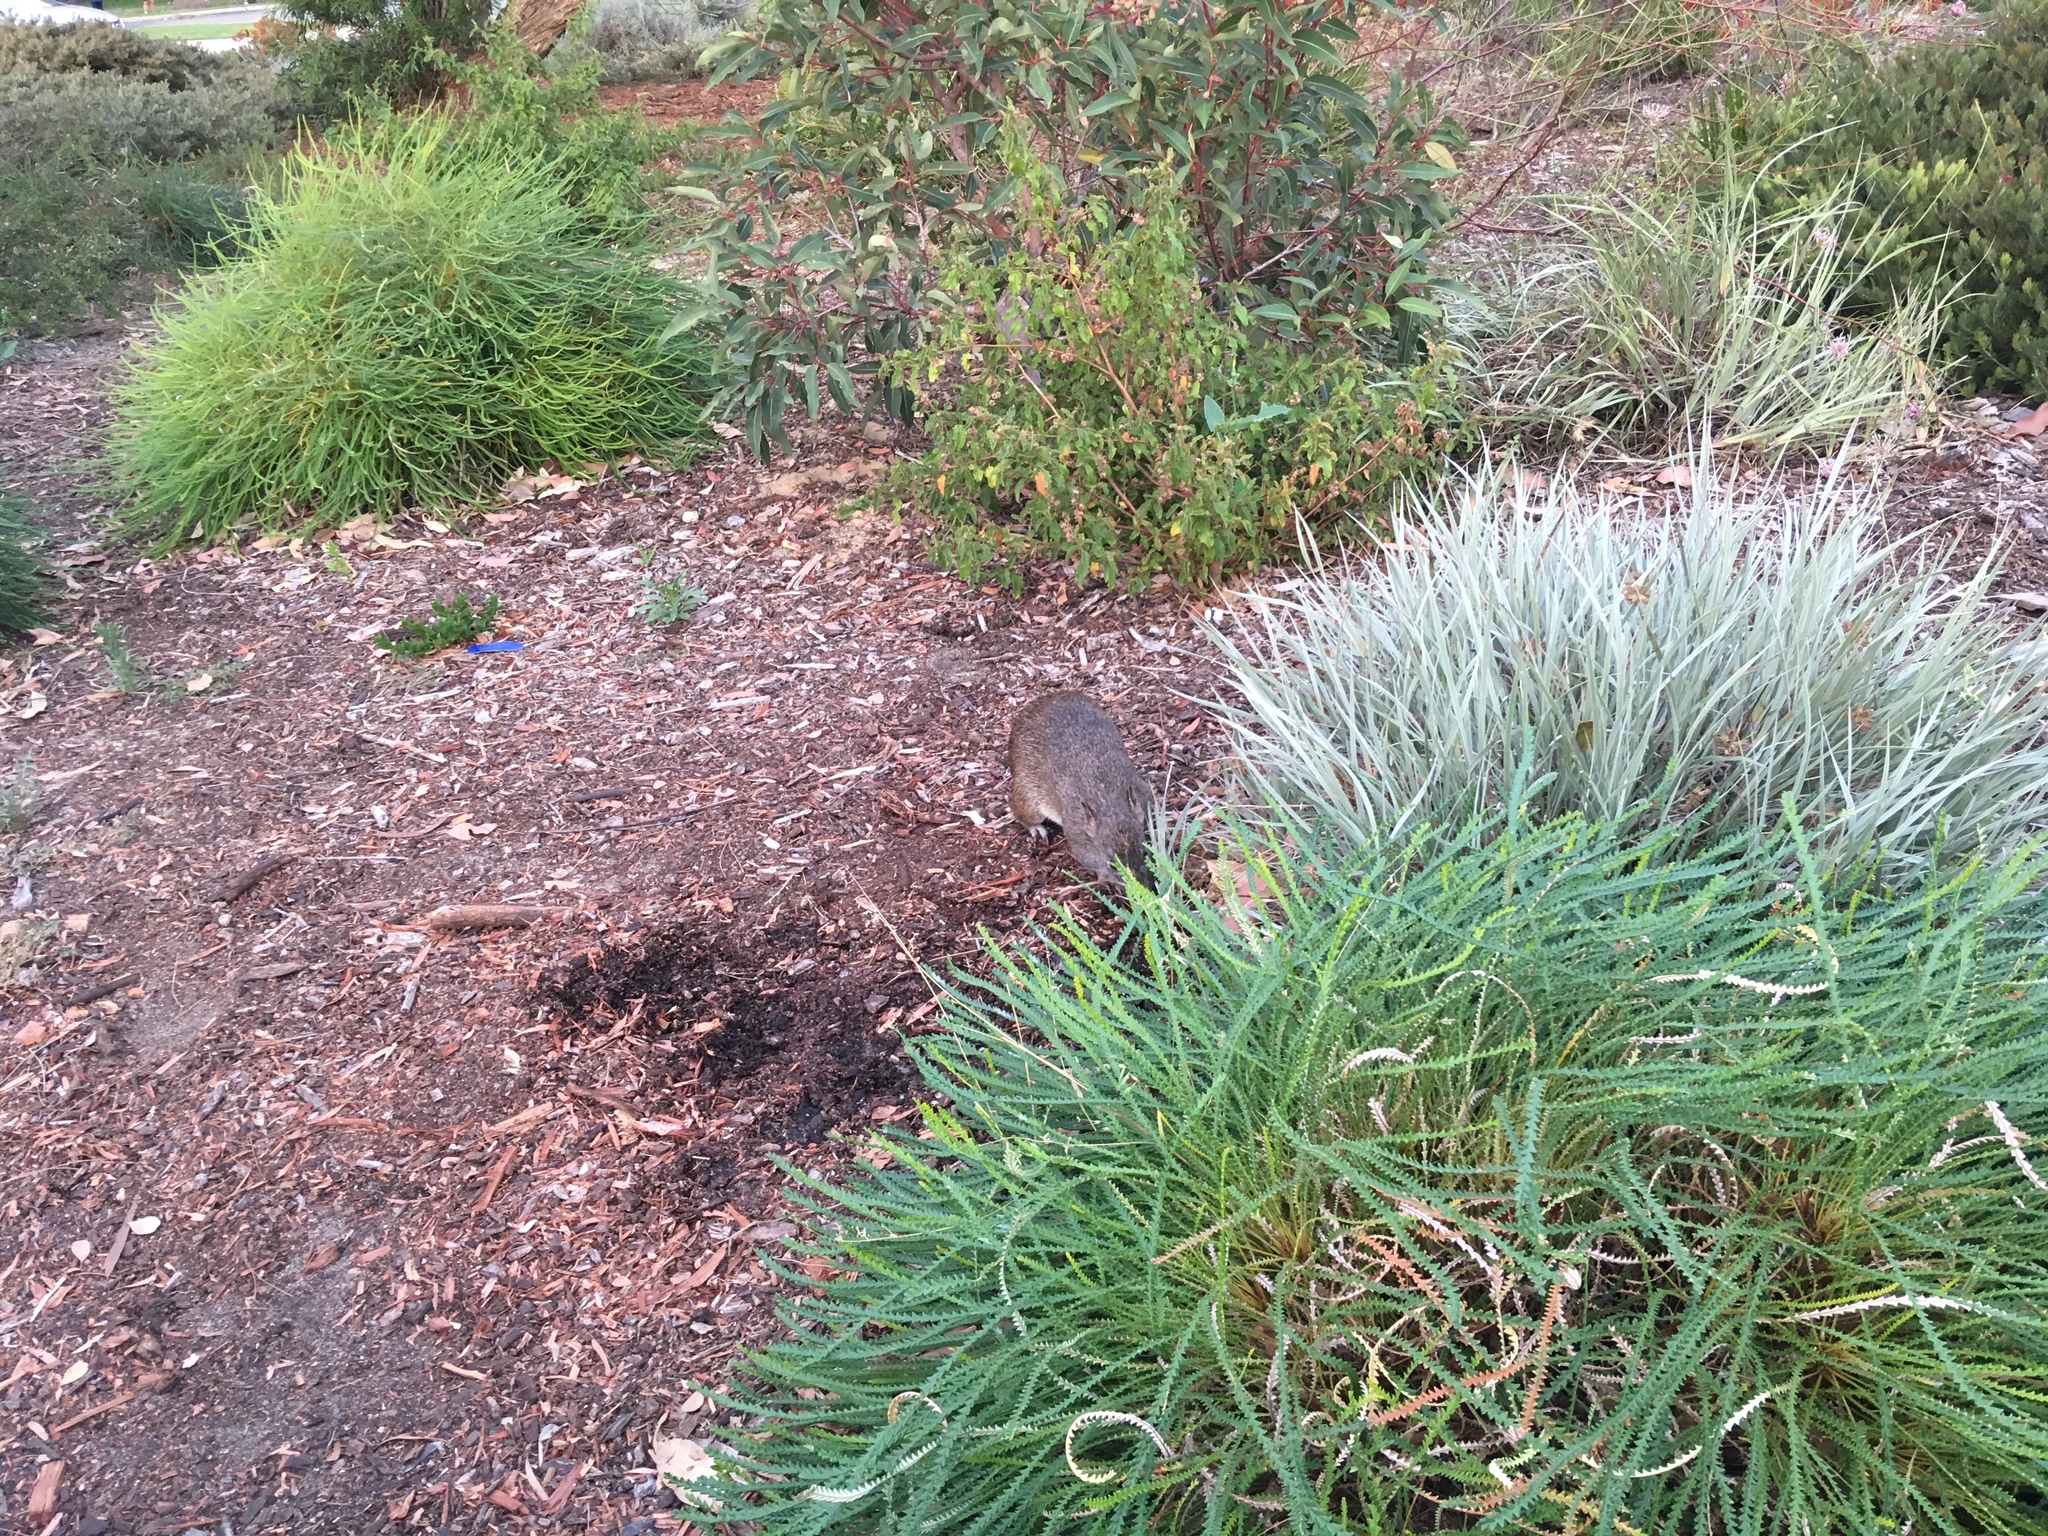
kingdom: Animalia
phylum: Chordata
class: Mammalia
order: Peramelemorphia
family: Peramelidae
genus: Isoodon
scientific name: Isoodon fusciventer
